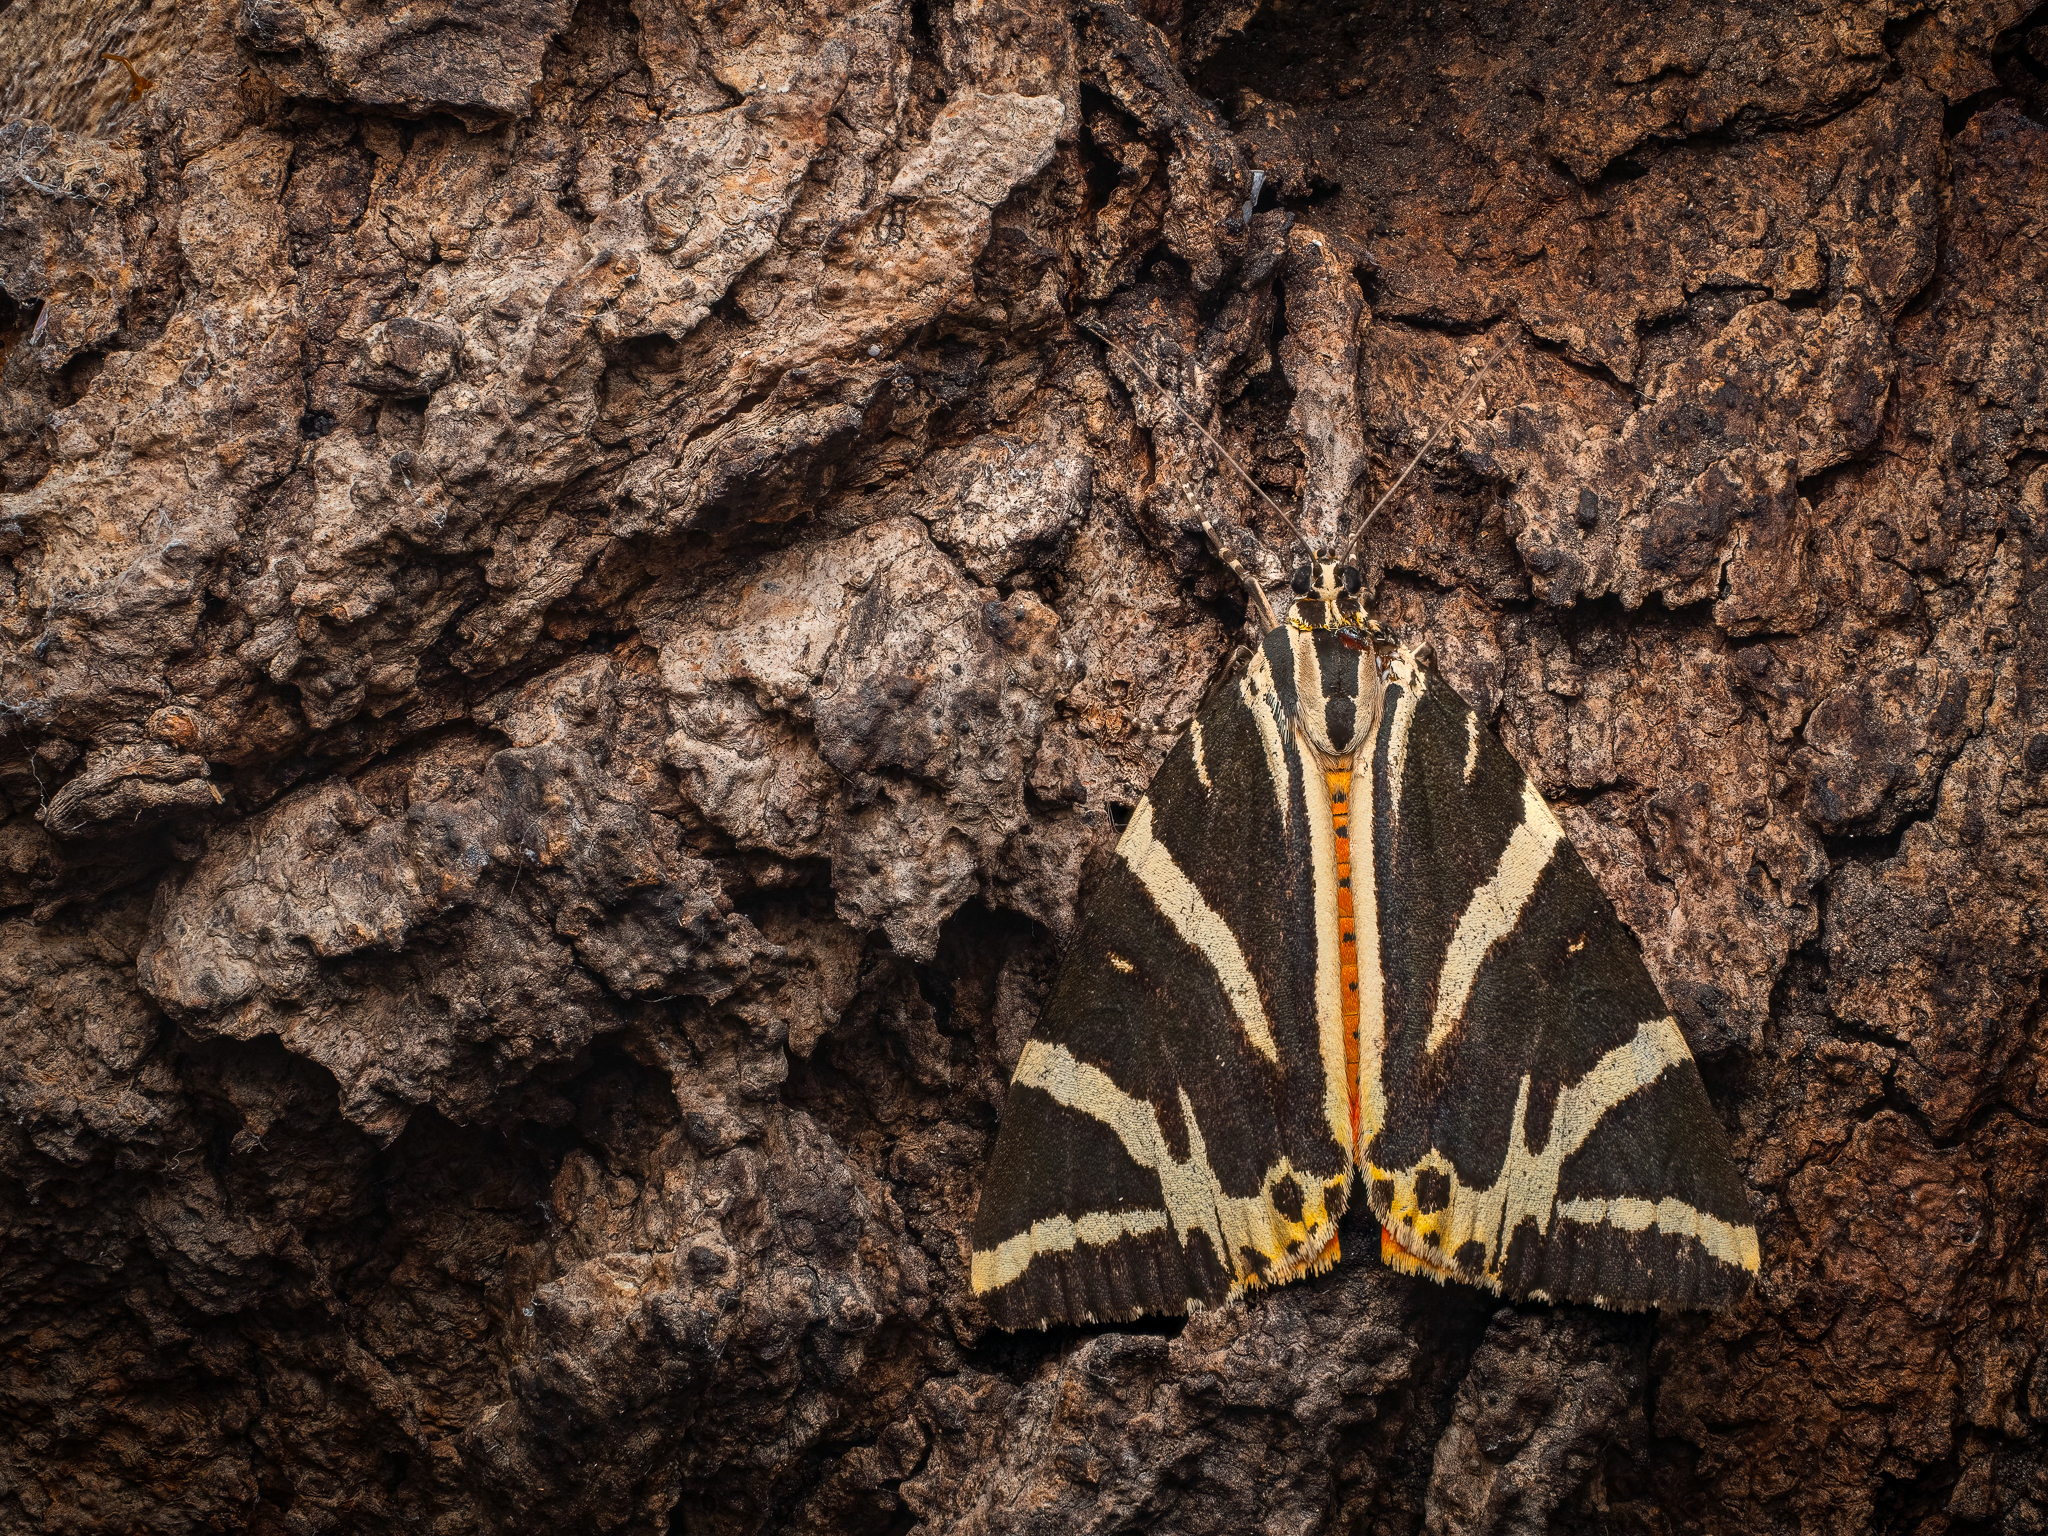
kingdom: Animalia
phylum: Arthropoda
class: Insecta
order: Lepidoptera
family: Erebidae
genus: Euplagia
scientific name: Euplagia quadripunctaria
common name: Jersey tiger
